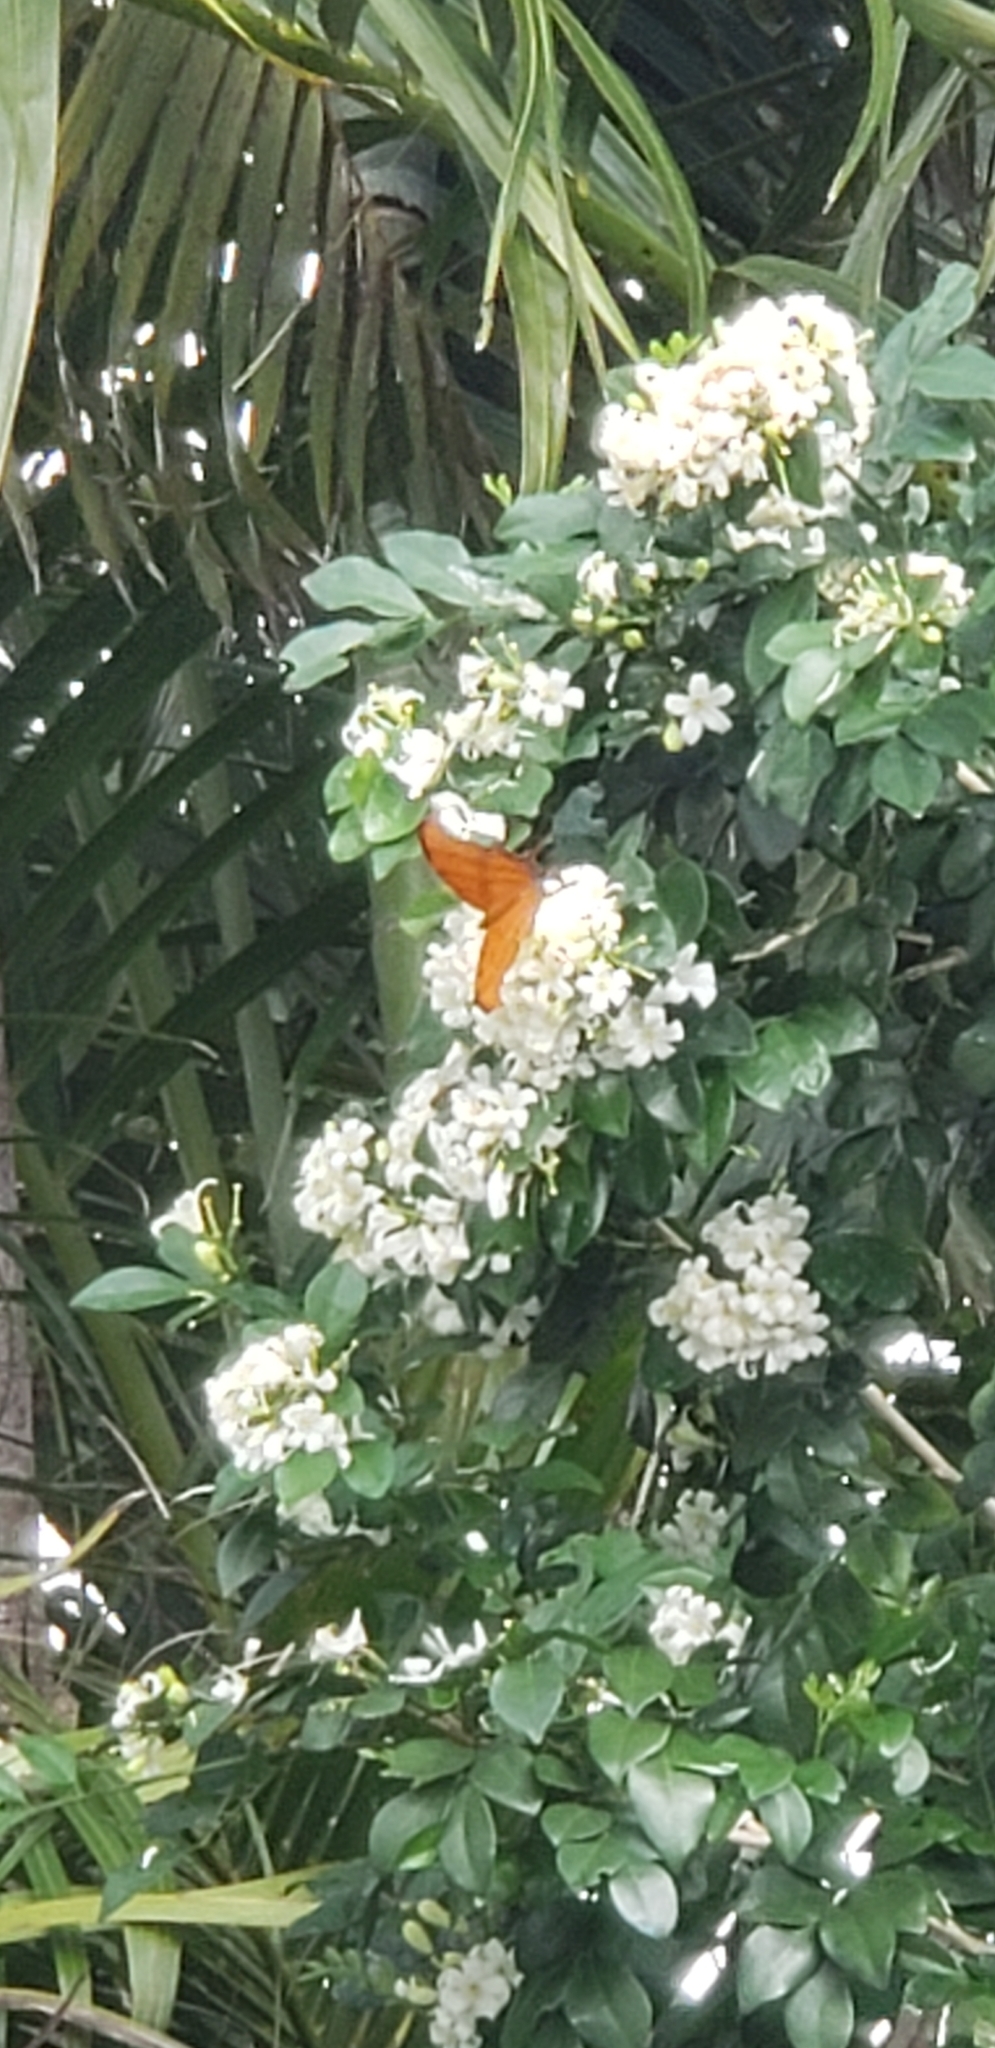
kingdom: Animalia
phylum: Arthropoda
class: Insecta
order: Lepidoptera
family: Nymphalidae
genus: Marpesia
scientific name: Marpesia petreus
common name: Red dagger wing
